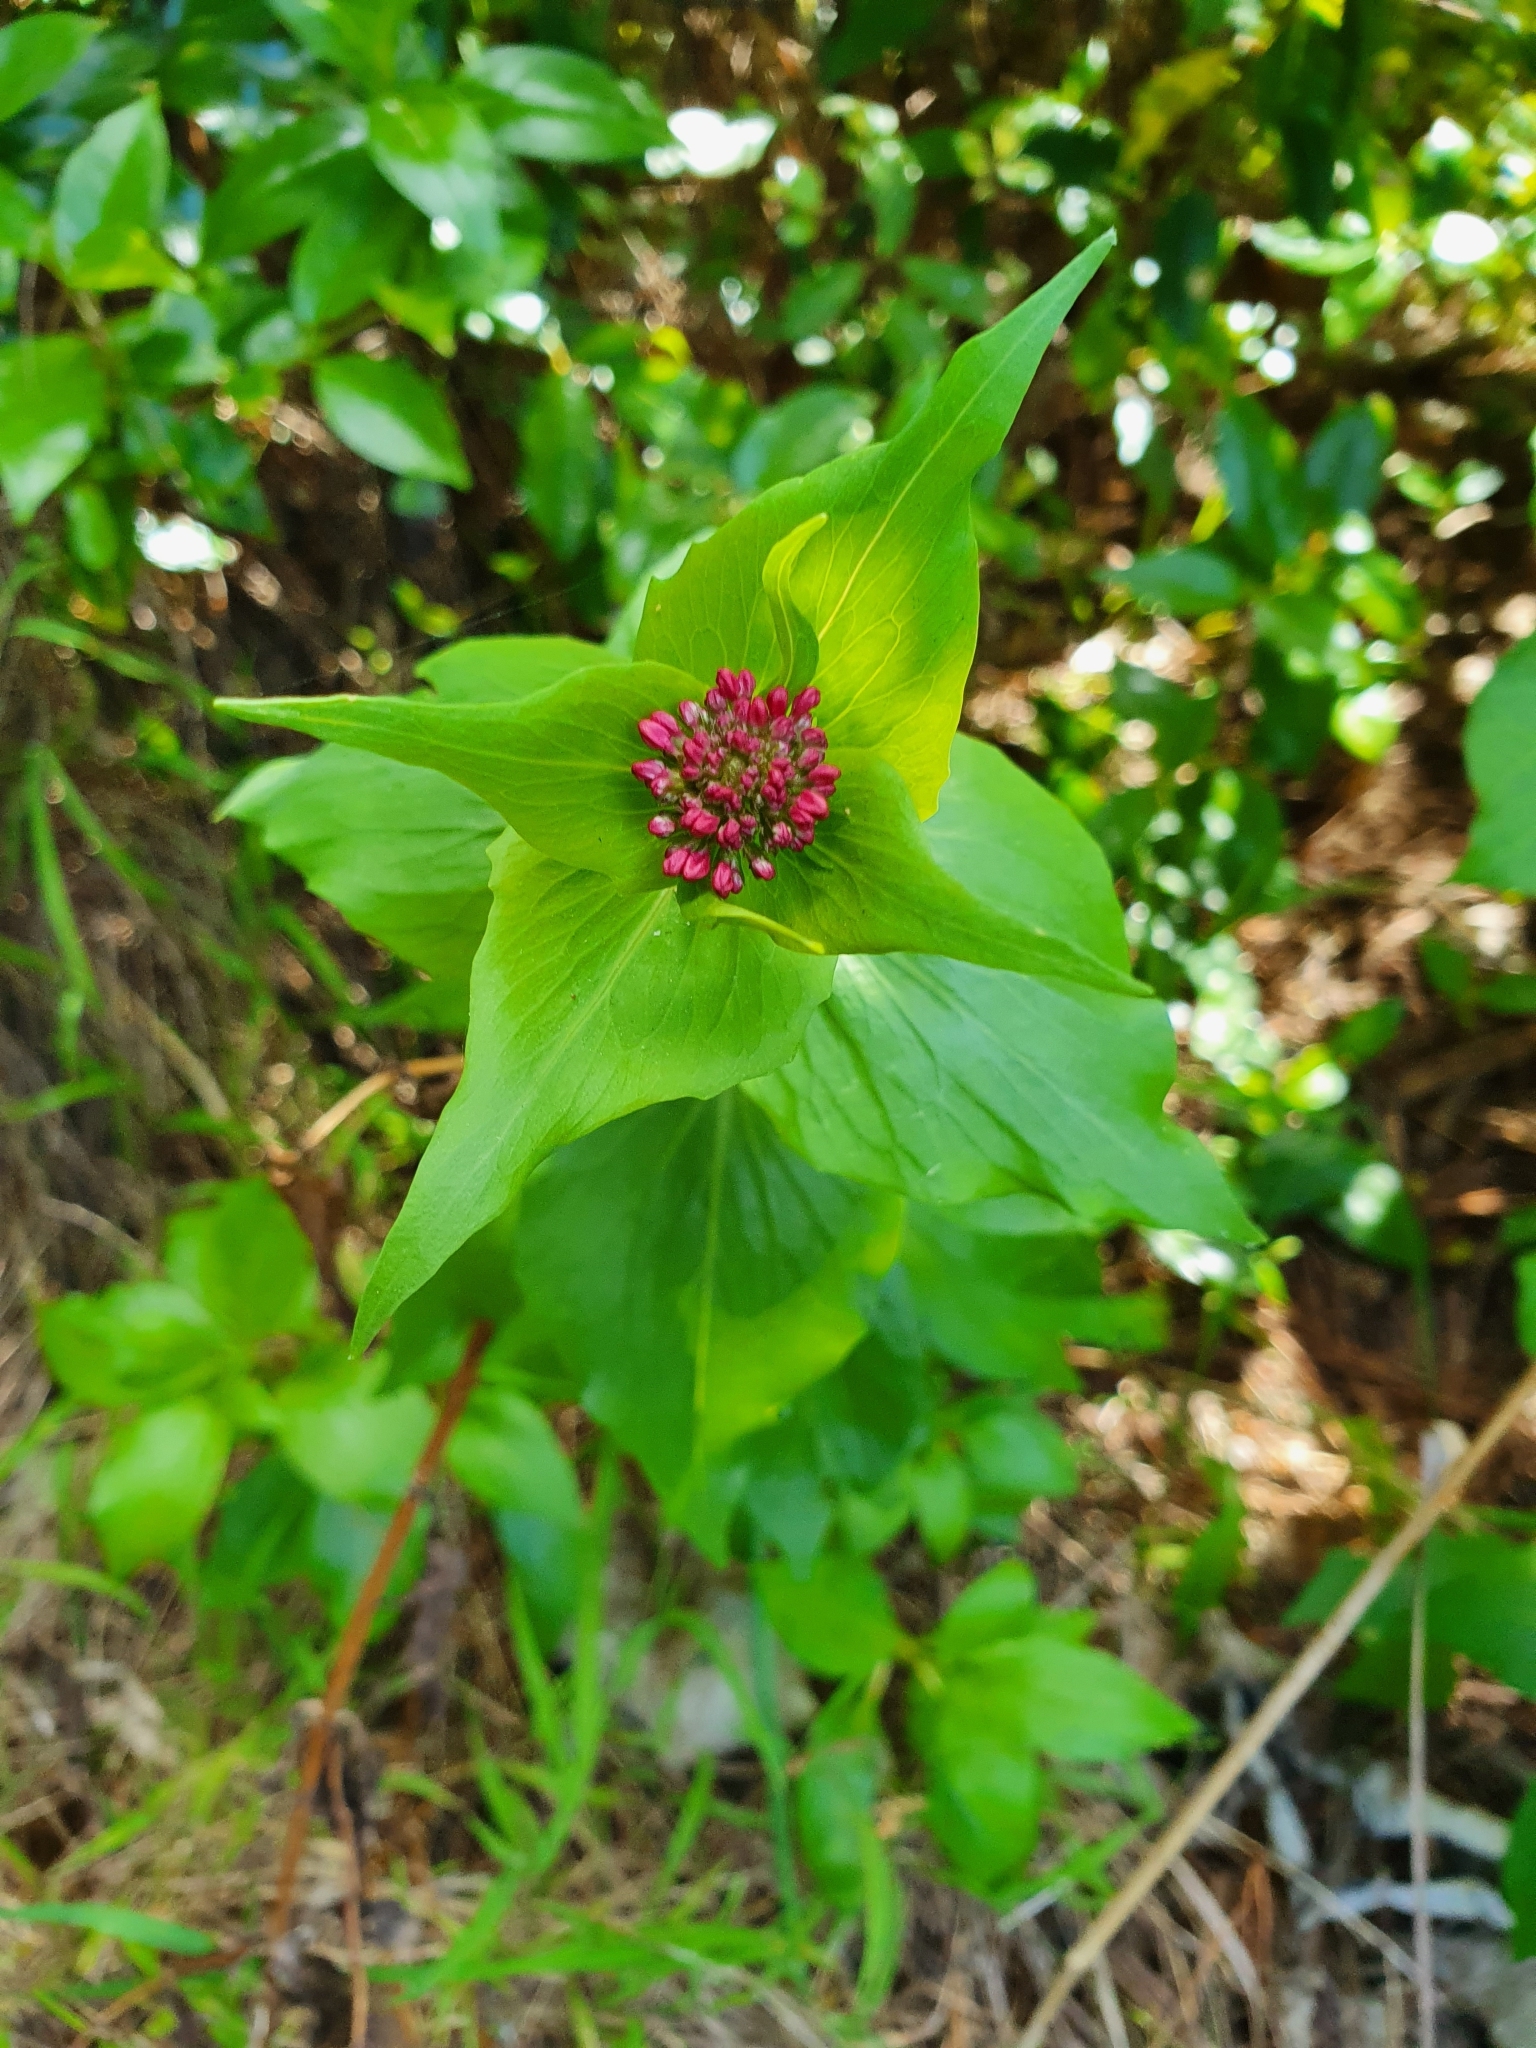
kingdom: Plantae
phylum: Tracheophyta
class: Magnoliopsida
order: Dipsacales
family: Caprifoliaceae
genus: Centranthus
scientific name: Centranthus ruber
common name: Red valerian
